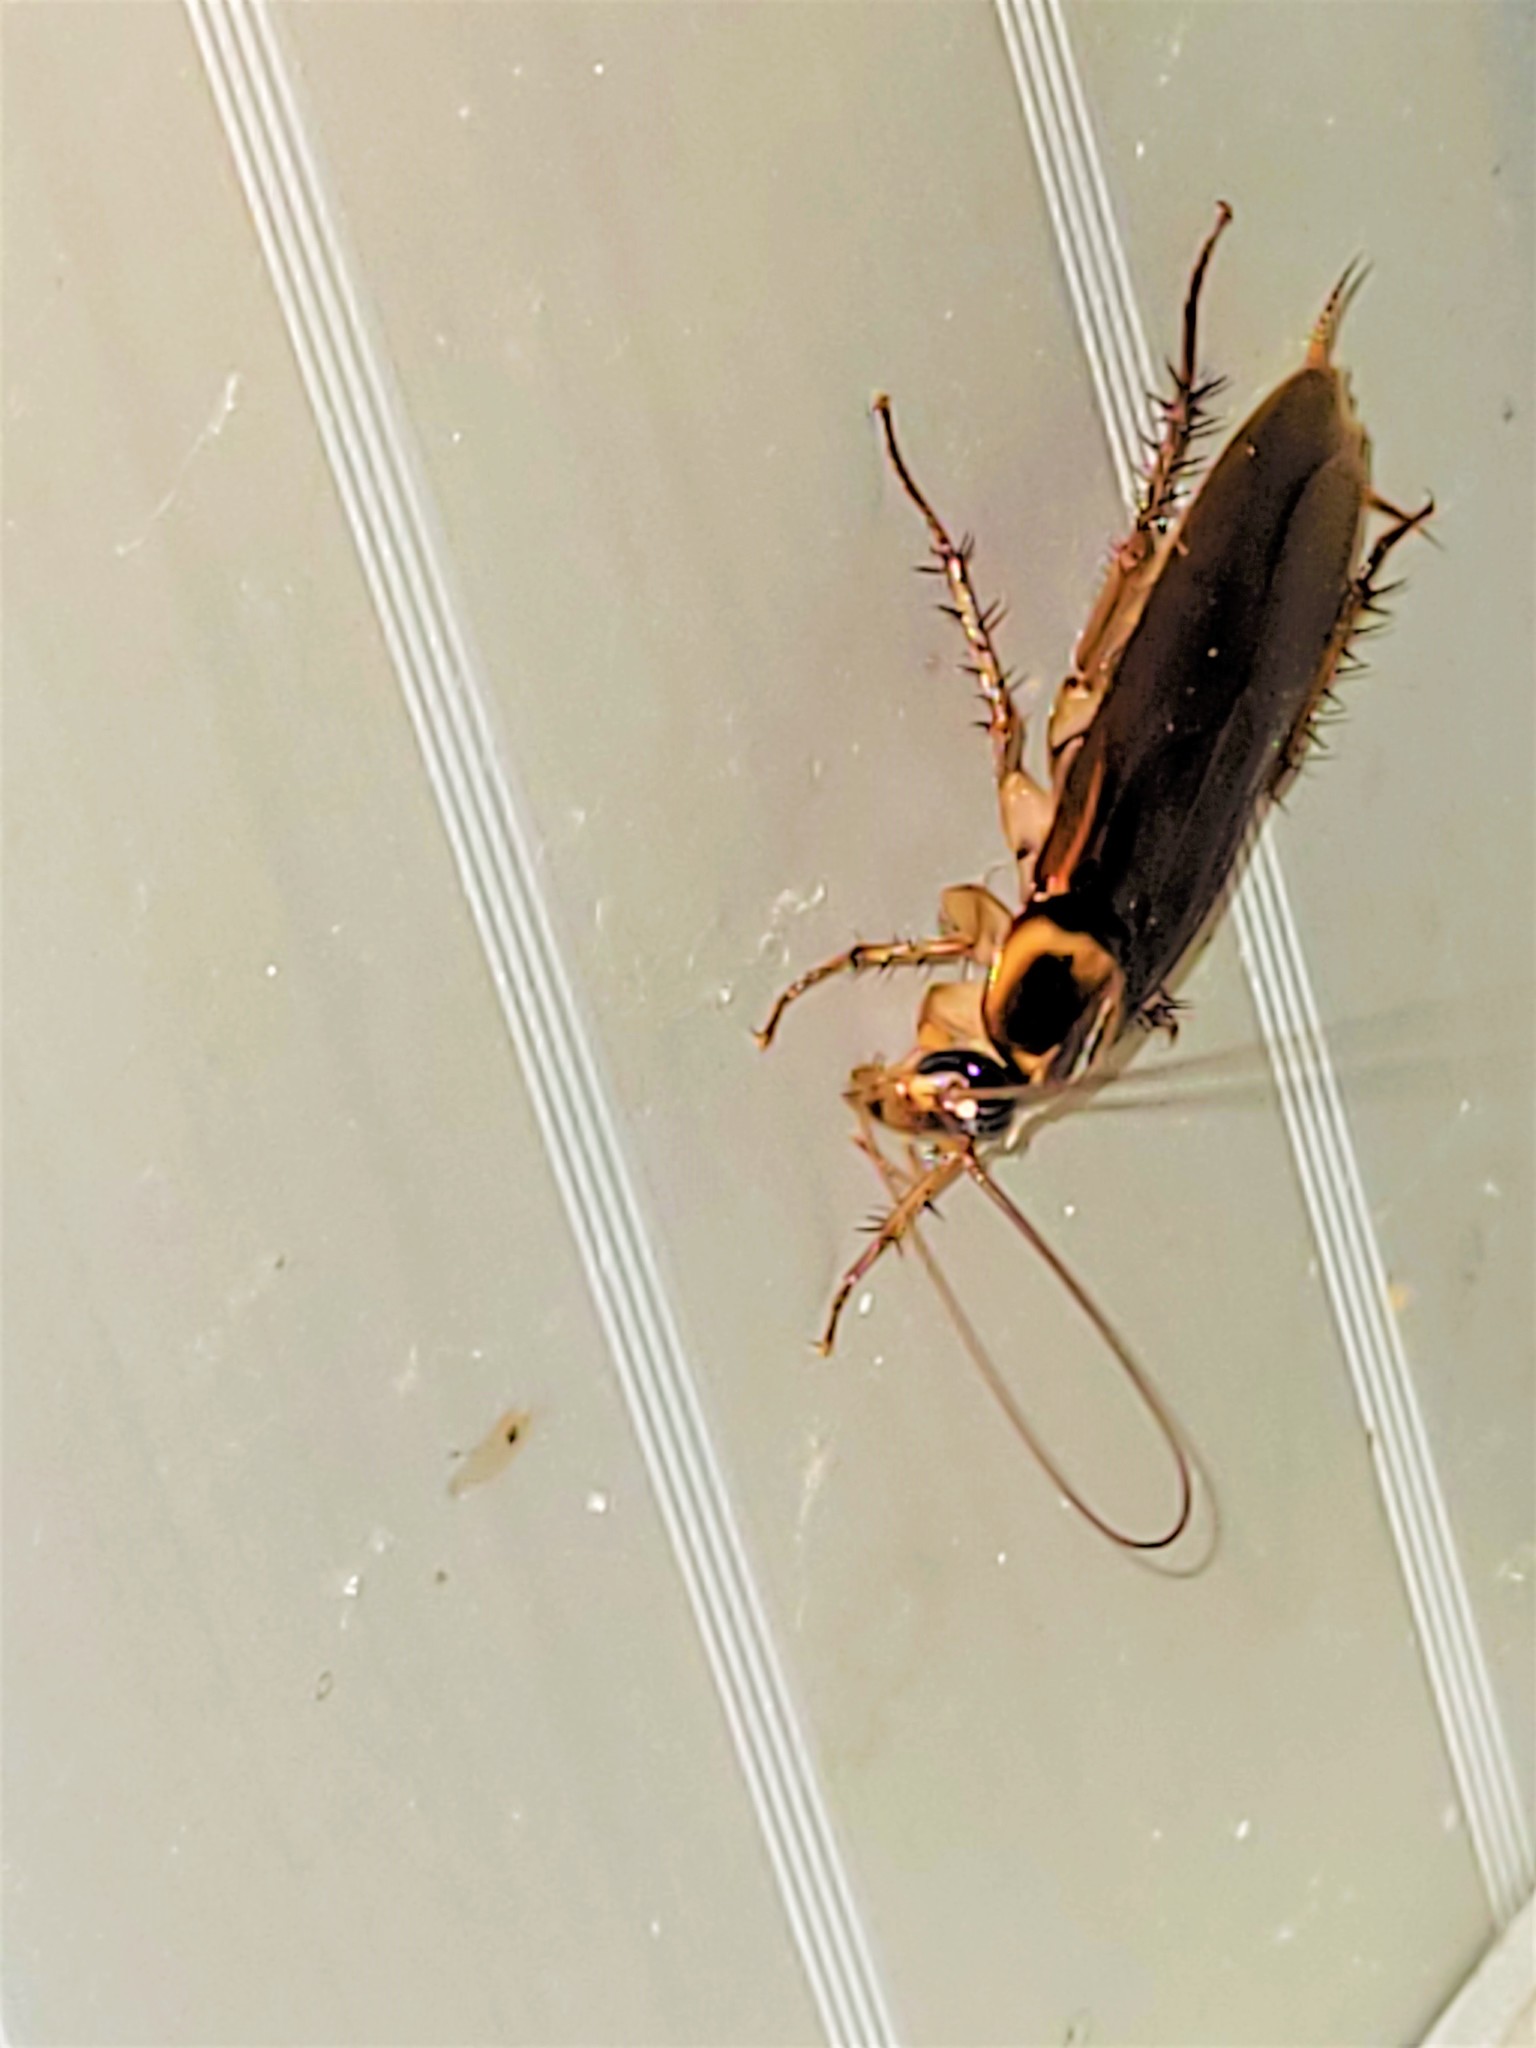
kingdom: Animalia
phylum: Arthropoda
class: Insecta
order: Blattodea
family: Blattidae
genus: Periplaneta
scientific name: Periplaneta australasiae
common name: Australian cockroach
